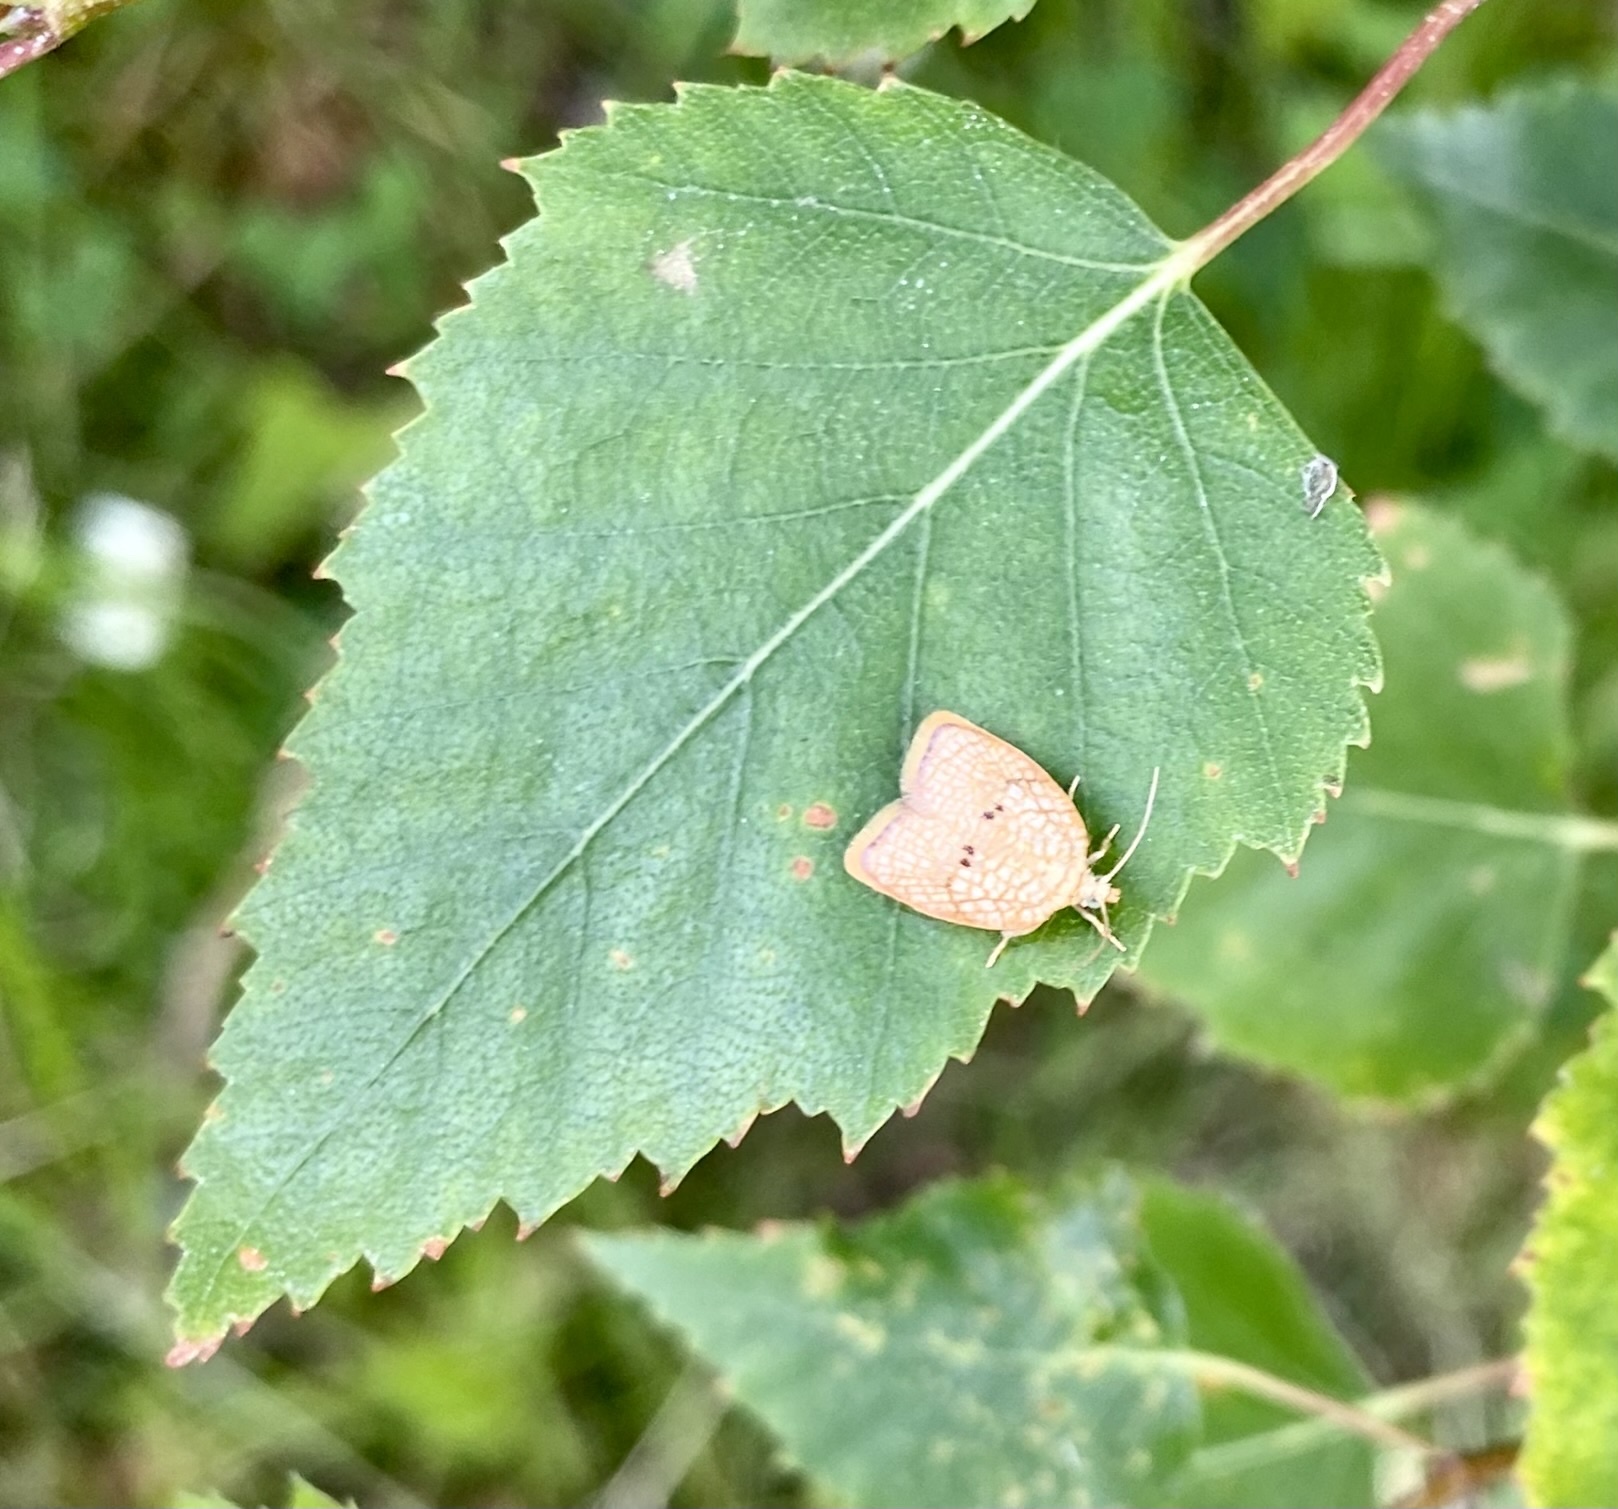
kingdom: Animalia
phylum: Arthropoda
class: Insecta
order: Lepidoptera
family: Tortricidae
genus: Acleris
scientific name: Acleris forsskaleana
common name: Maple button
